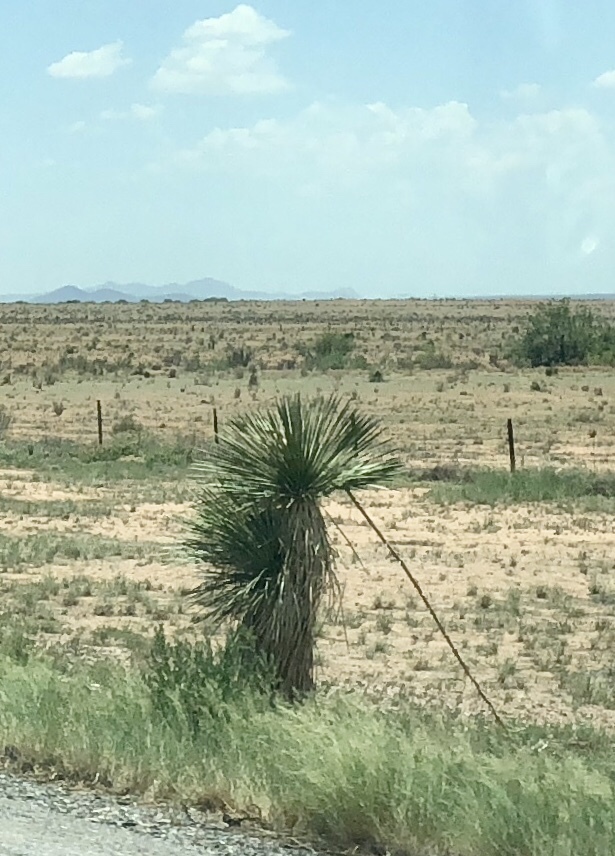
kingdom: Plantae
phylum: Tracheophyta
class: Liliopsida
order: Asparagales
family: Asparagaceae
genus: Yucca
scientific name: Yucca elata
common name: Palmella
